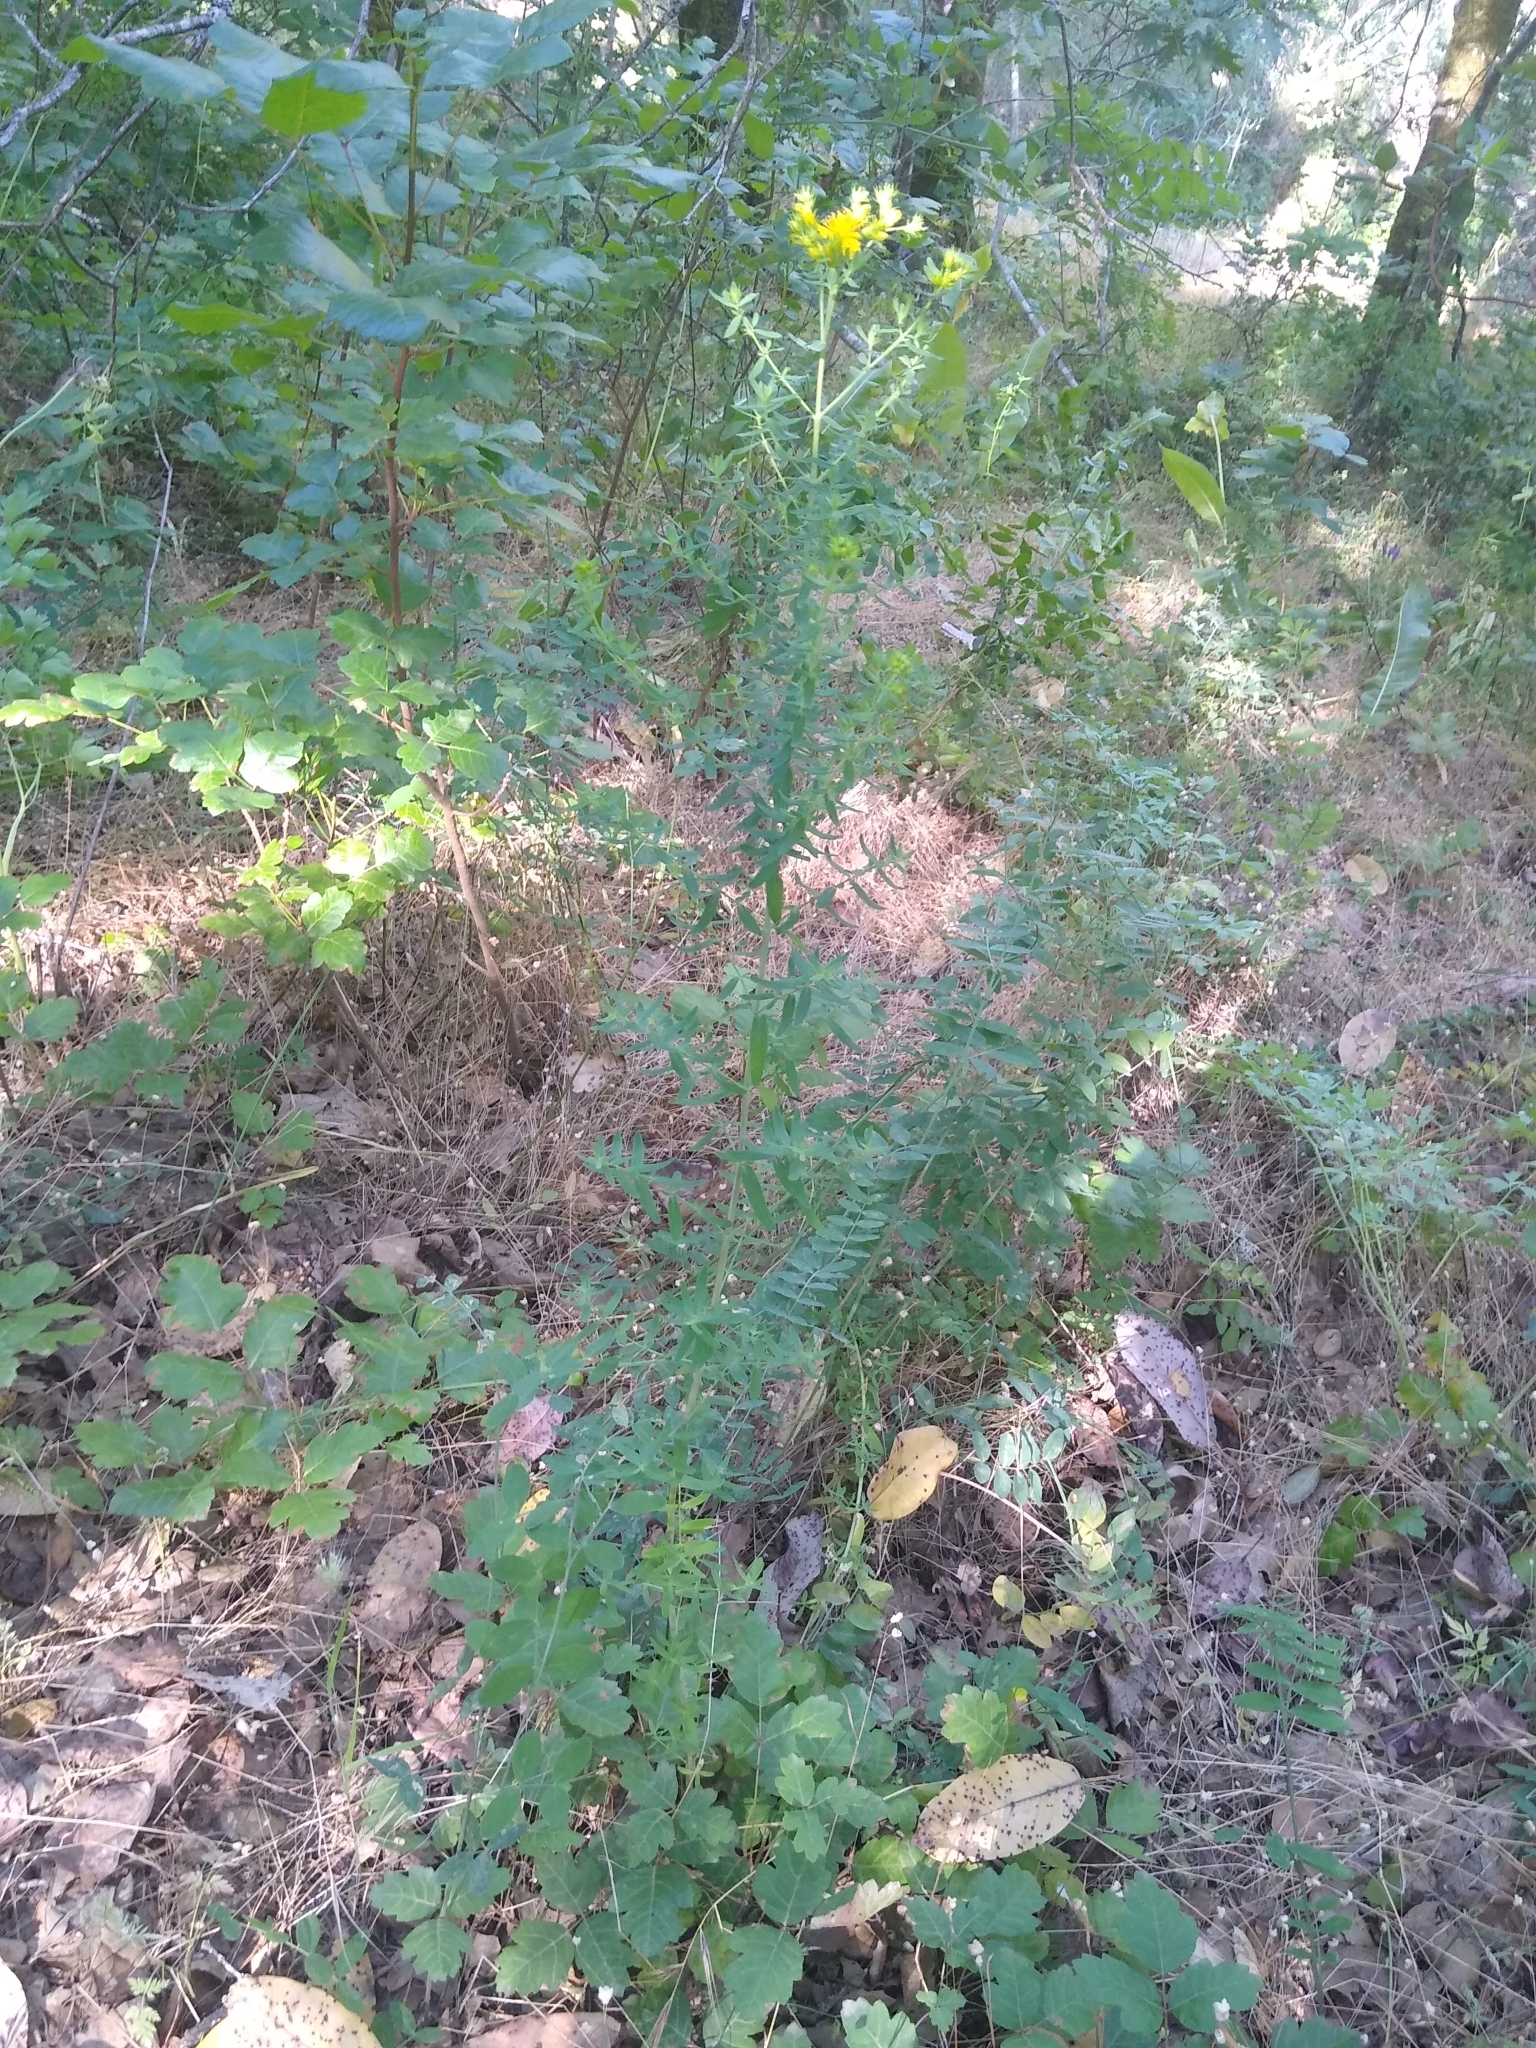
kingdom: Plantae
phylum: Tracheophyta
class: Magnoliopsida
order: Malpighiales
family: Hypericaceae
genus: Hypericum
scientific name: Hypericum perforatum
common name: Common st. johnswort
